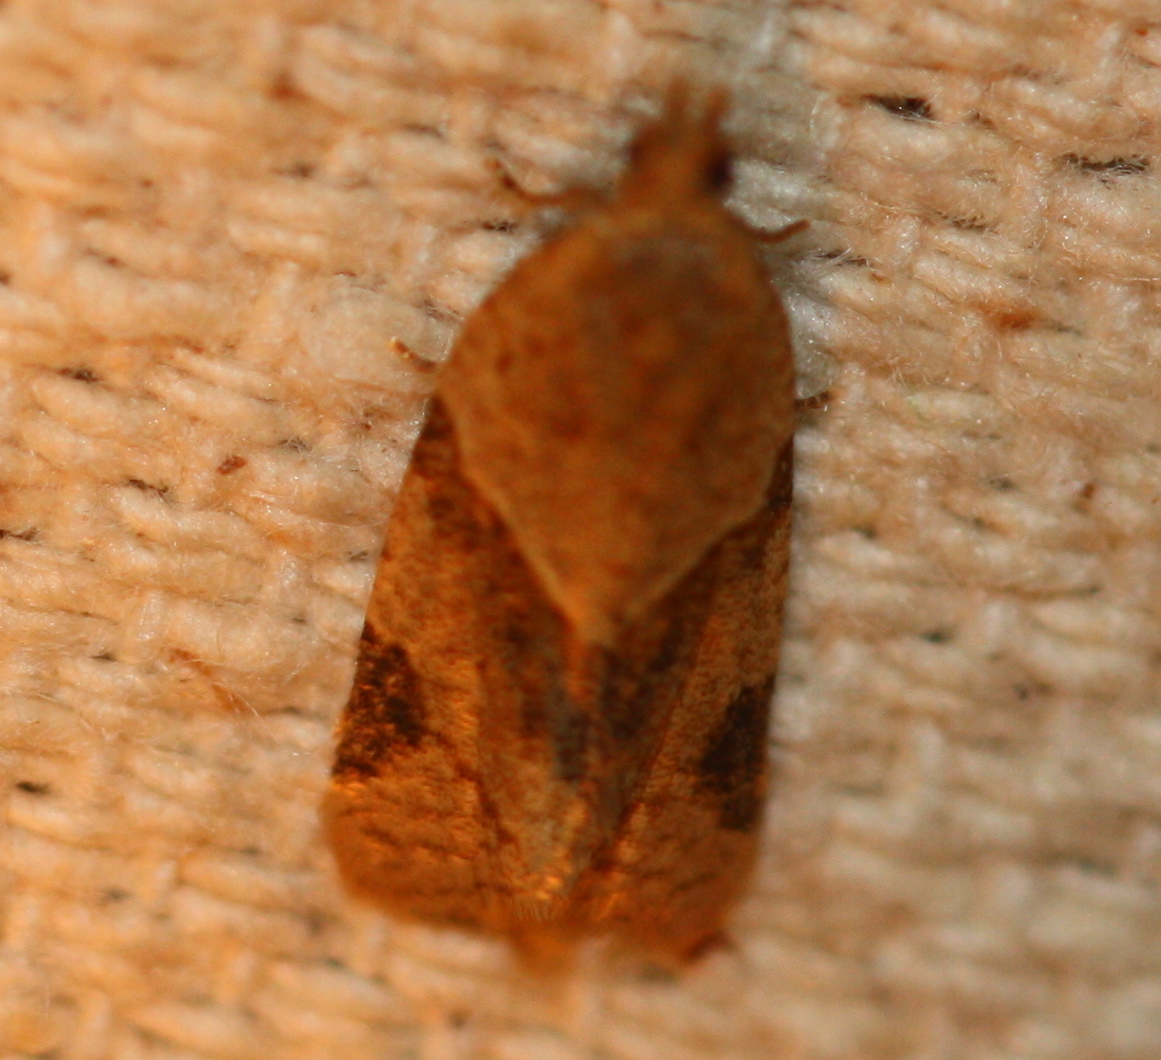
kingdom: Animalia
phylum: Arthropoda
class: Insecta
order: Lepidoptera
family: Tortricidae
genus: Clepsis
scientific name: Clepsis peritana
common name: Garden tortrix
